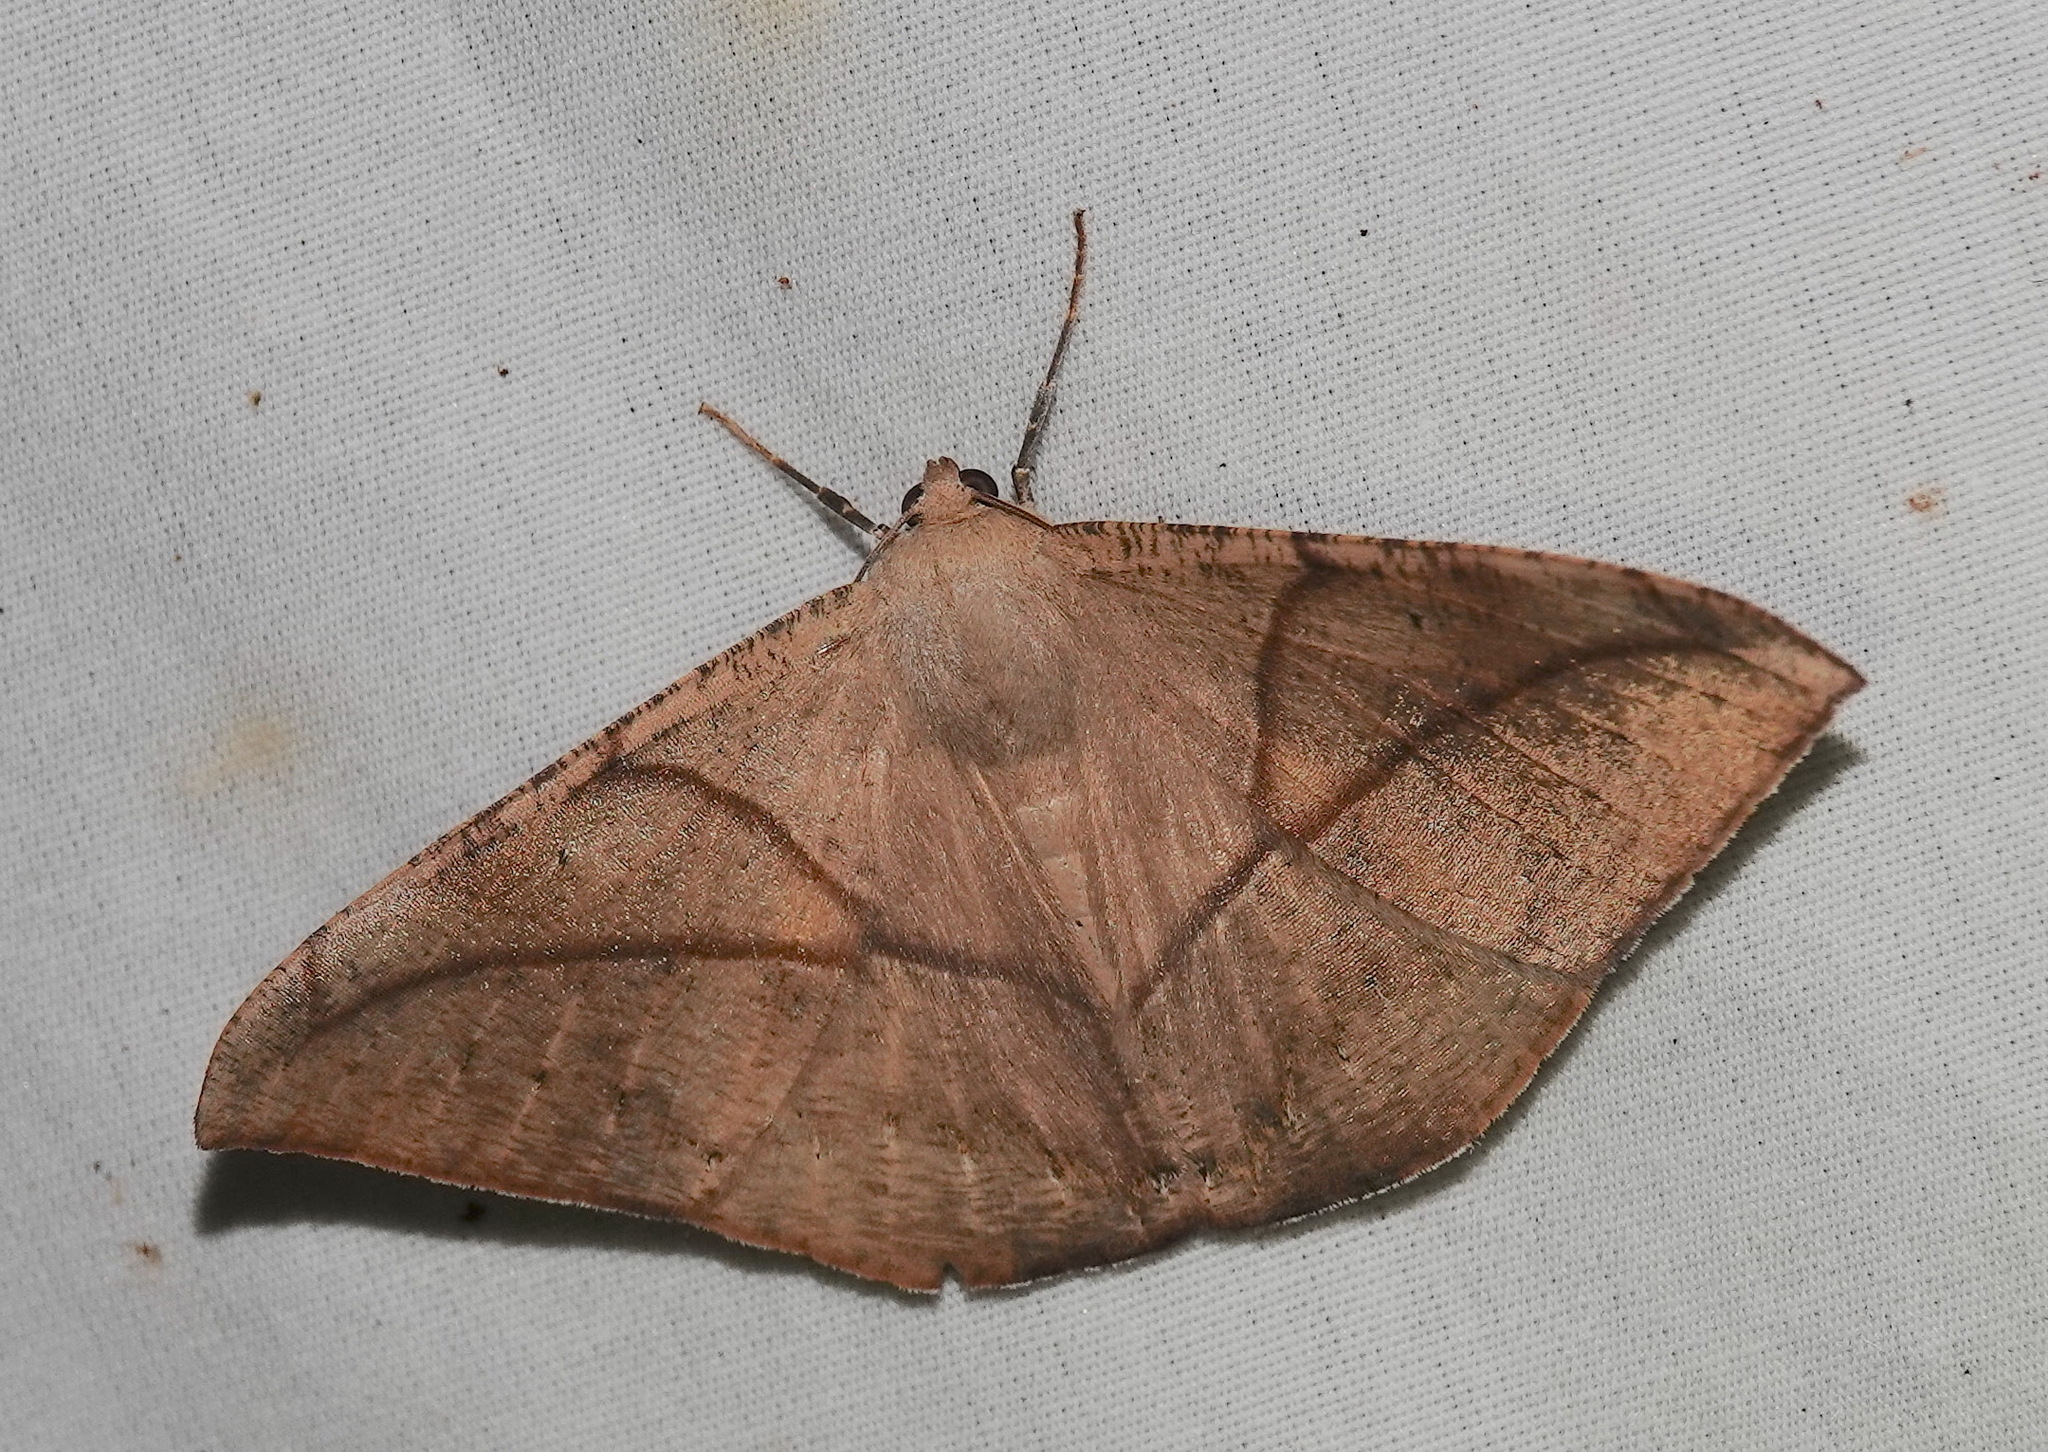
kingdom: Animalia
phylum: Arthropoda
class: Insecta
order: Lepidoptera
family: Geometridae
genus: Oxydia
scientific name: Oxydia trychiata
